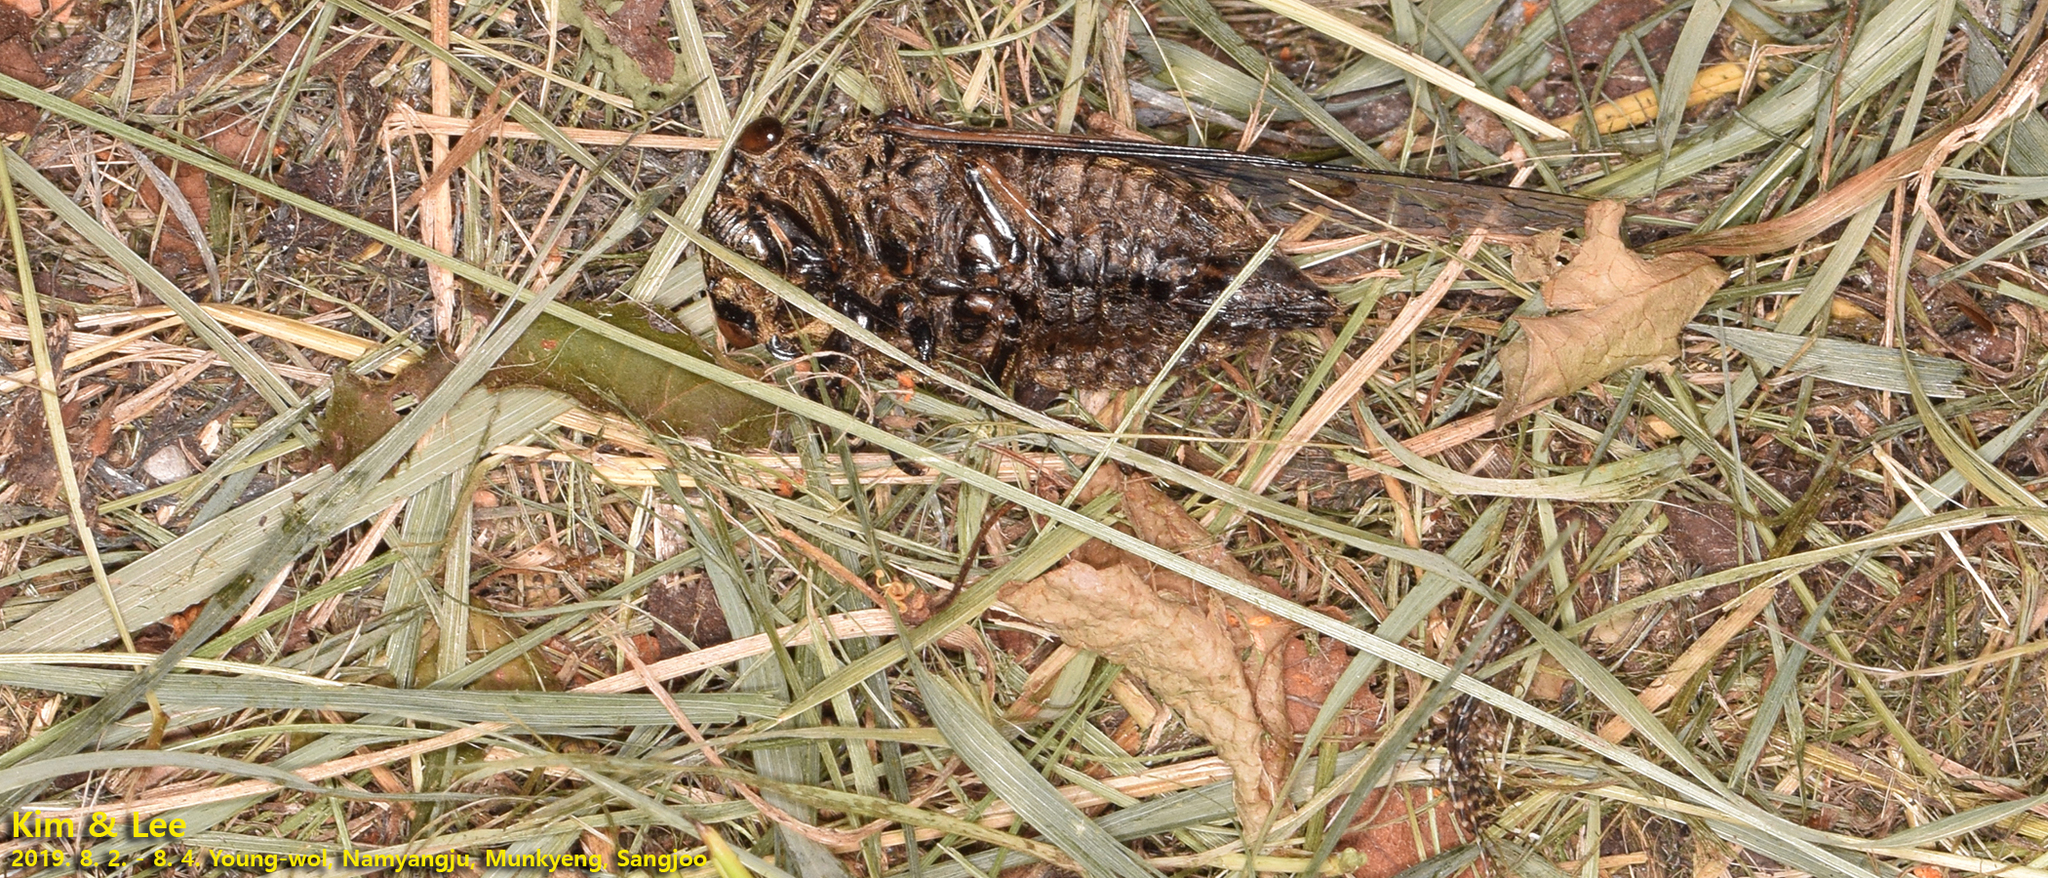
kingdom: Animalia
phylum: Arthropoda
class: Insecta
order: Hemiptera
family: Cicadidae
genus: Cryptotympana
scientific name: Cryptotympana atrata
